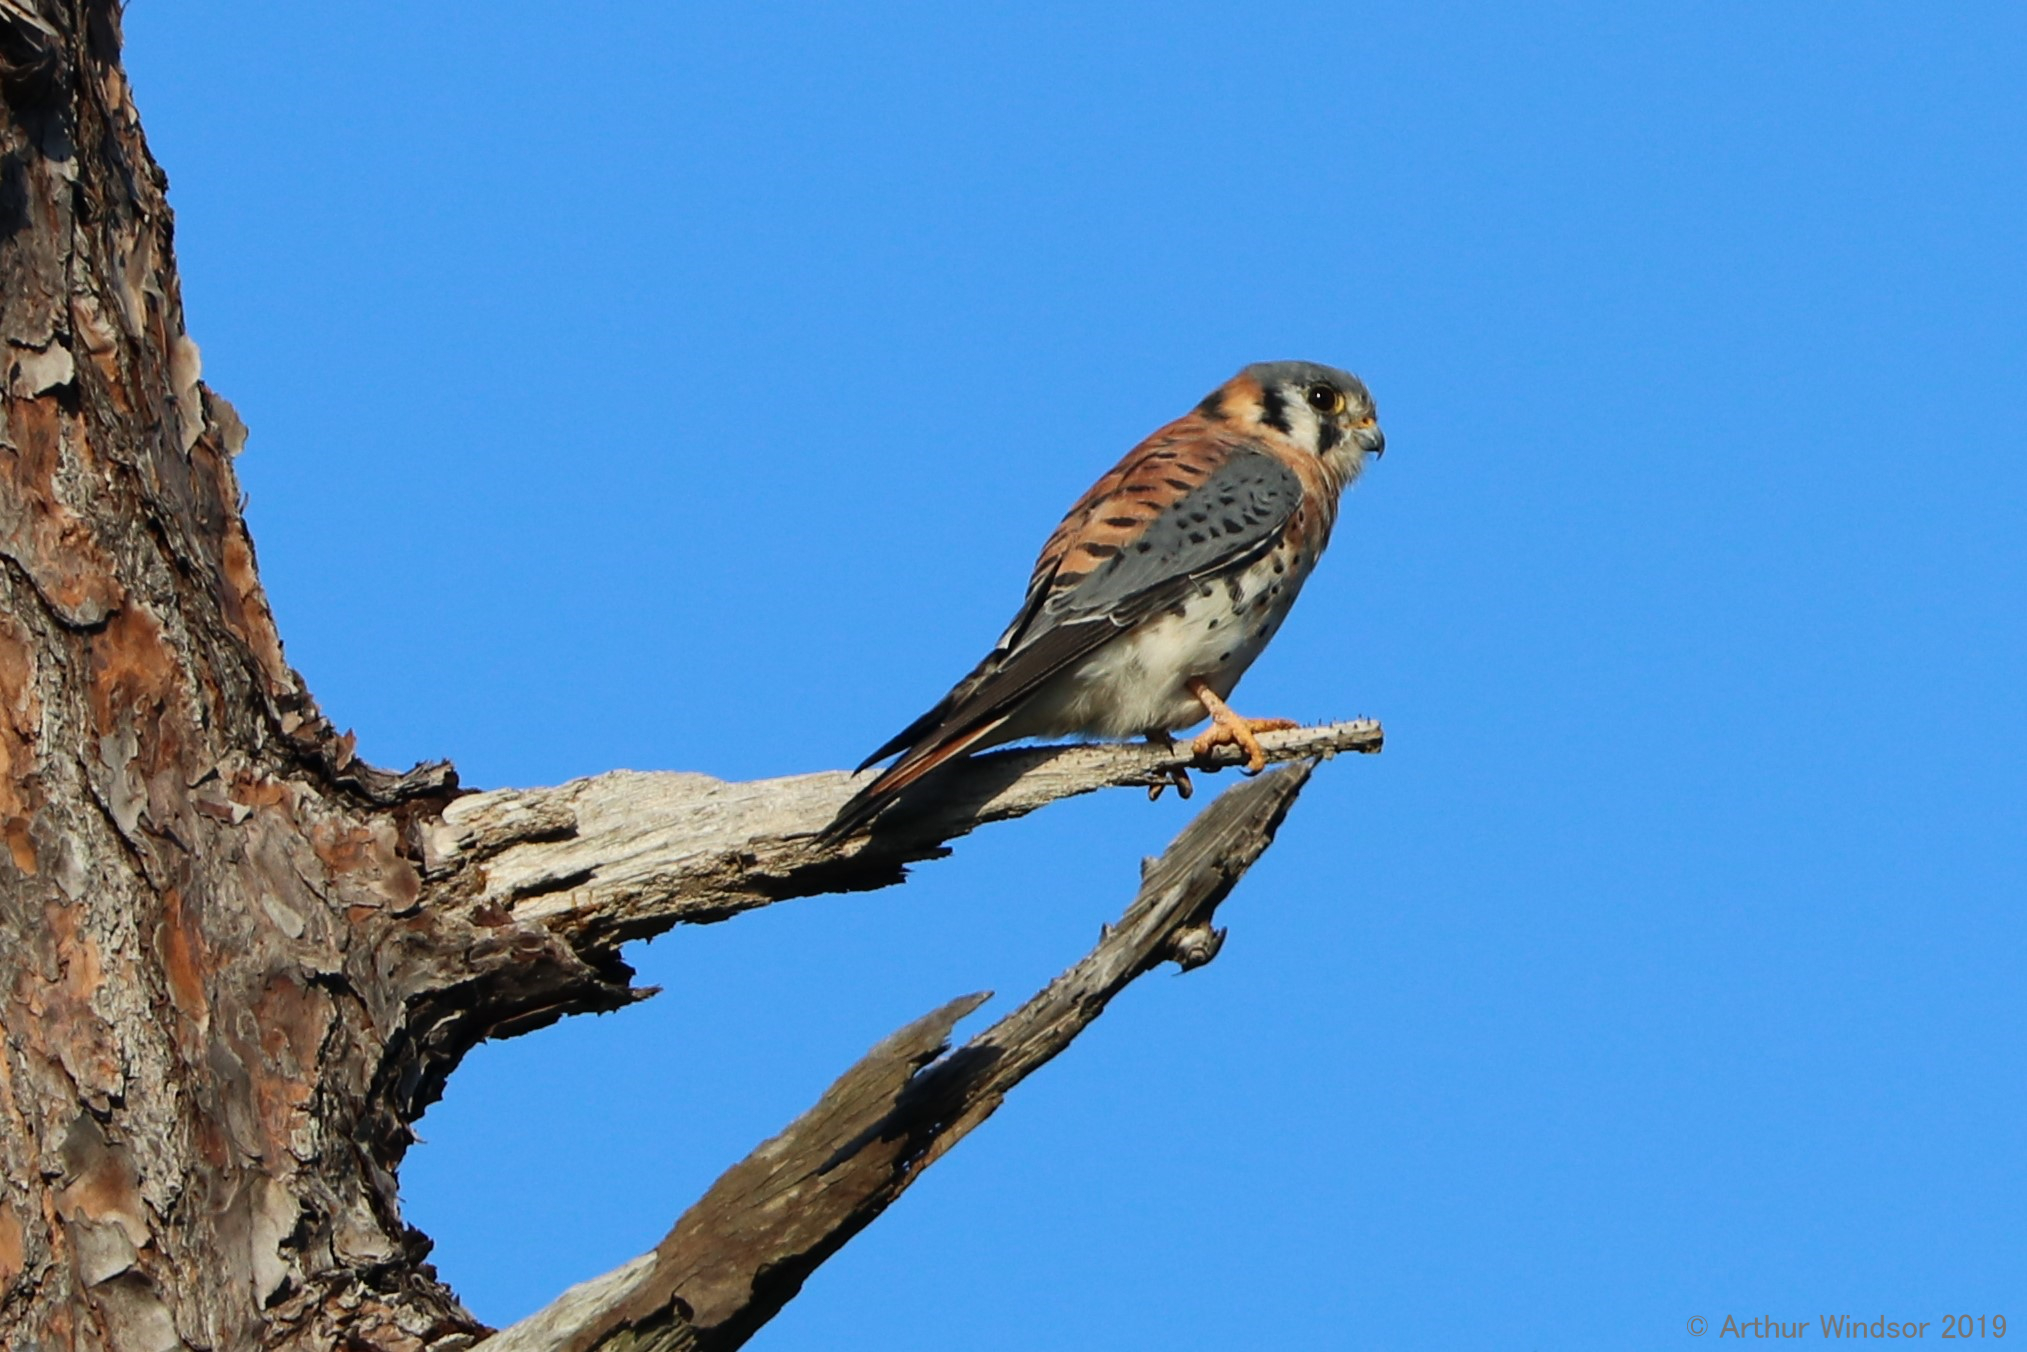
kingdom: Animalia
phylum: Chordata
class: Aves
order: Falconiformes
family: Falconidae
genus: Falco
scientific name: Falco sparverius
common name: American kestrel
